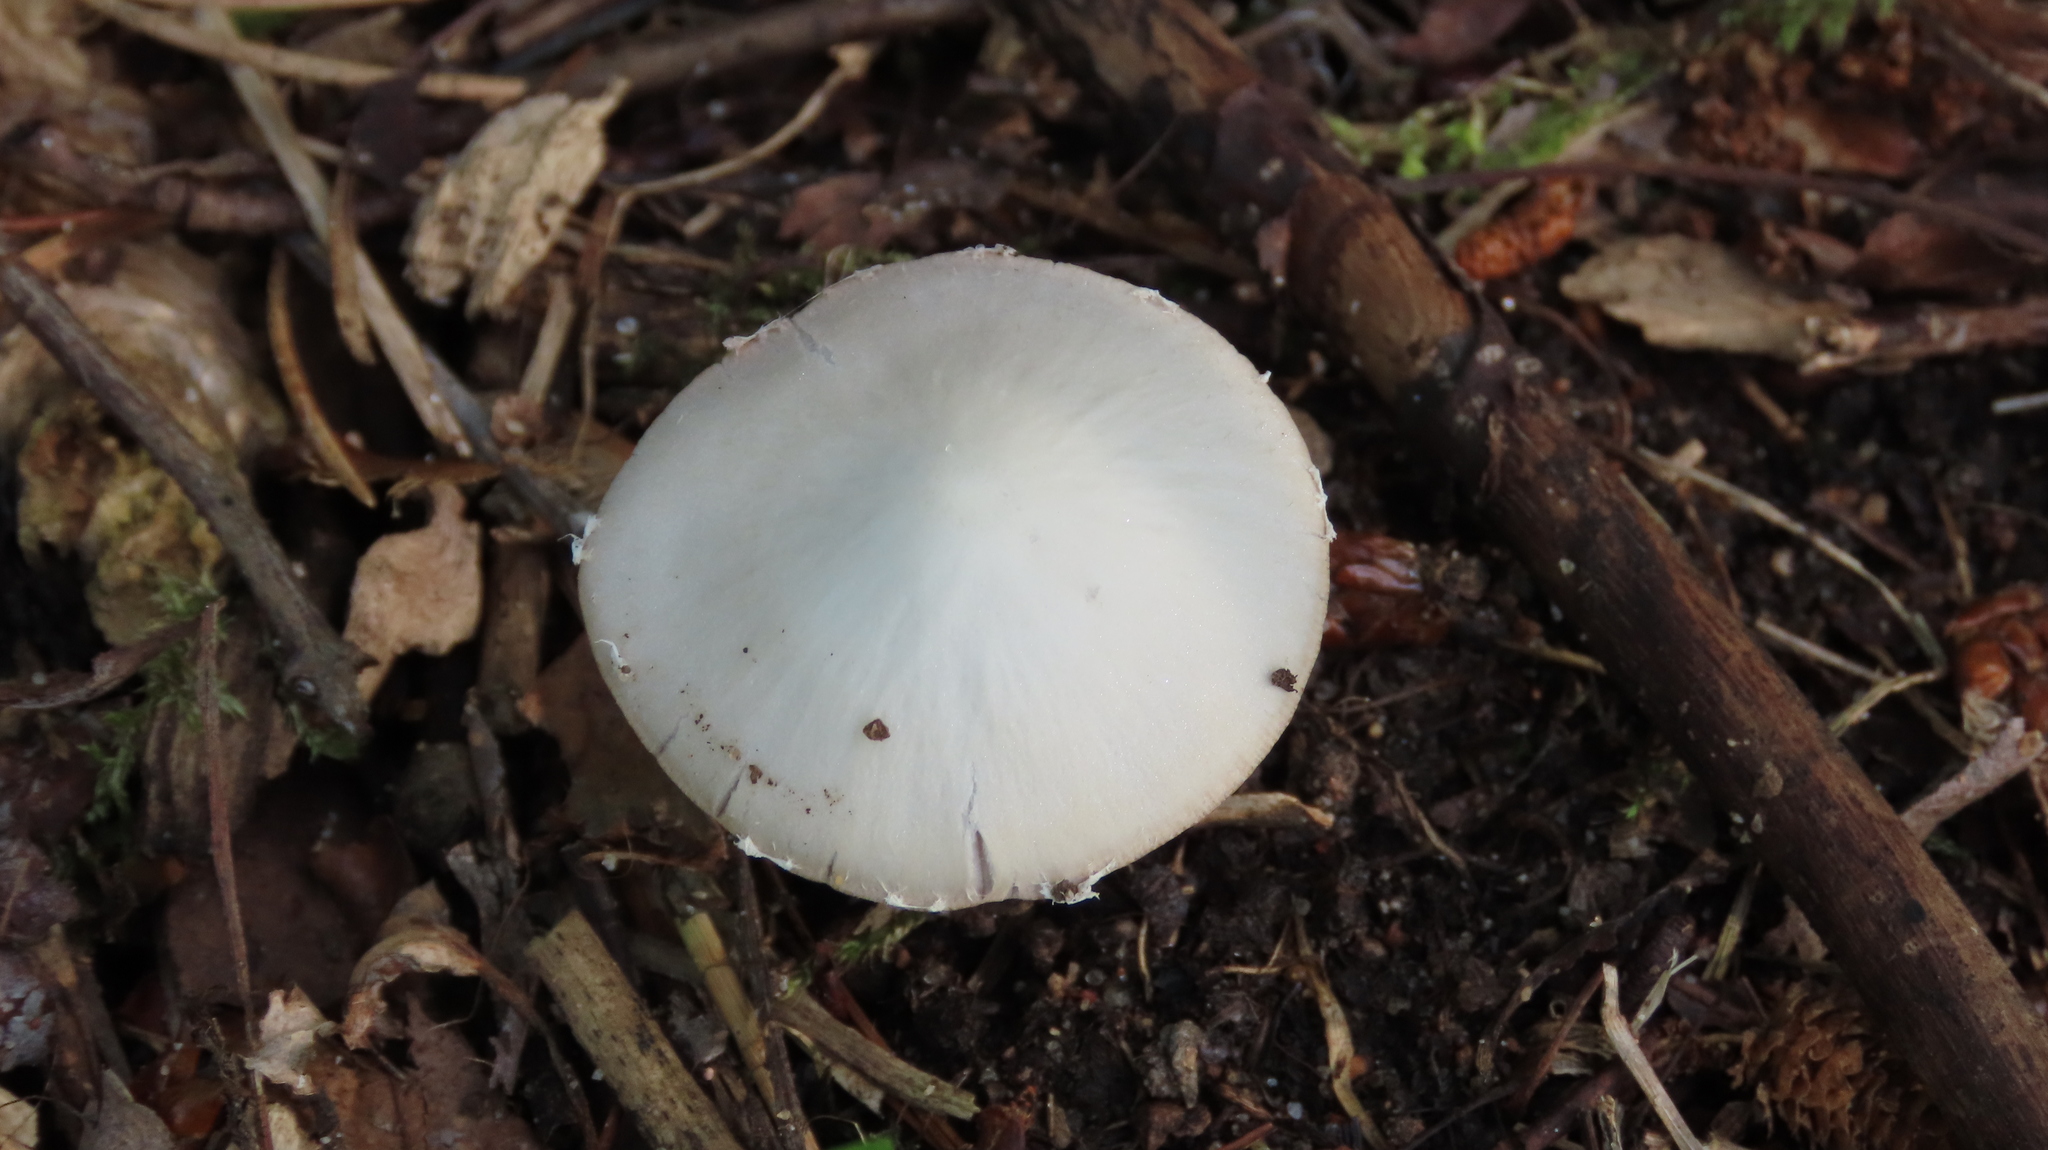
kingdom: Fungi
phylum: Basidiomycota
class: Agaricomycetes
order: Agaricales
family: Psathyrellaceae
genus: Candolleomyces
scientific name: Candolleomyces candolleanus
